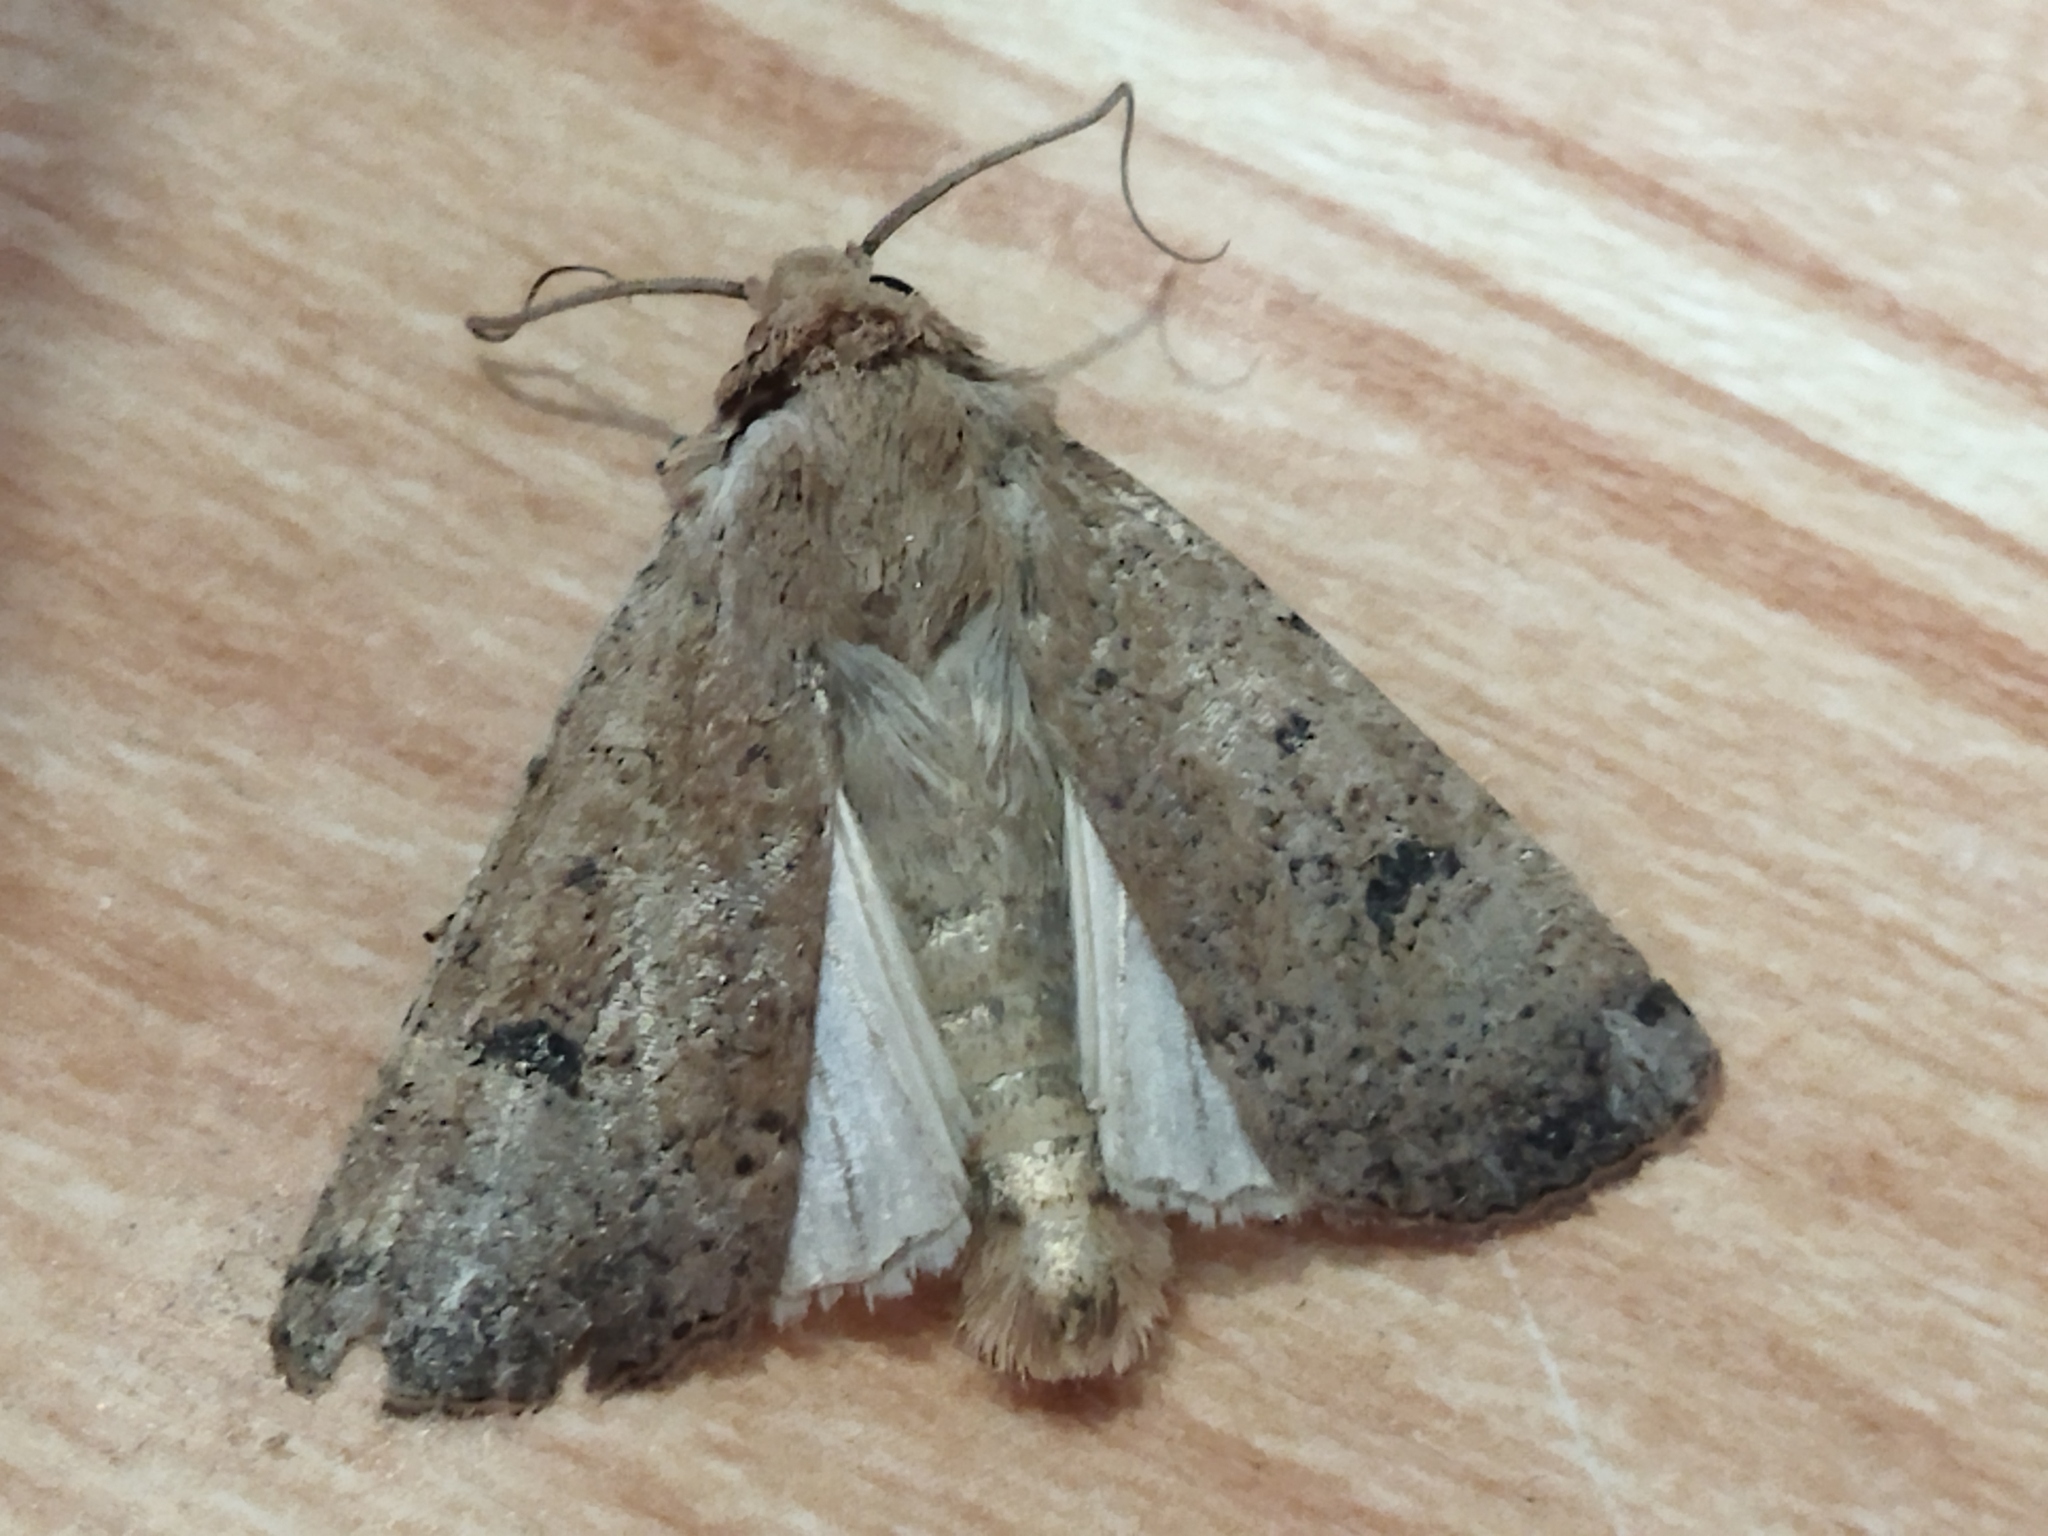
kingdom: Animalia
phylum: Arthropoda
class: Insecta
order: Lepidoptera
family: Noctuidae
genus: Agrotis
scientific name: Agrotis trux
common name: Crescent dart
